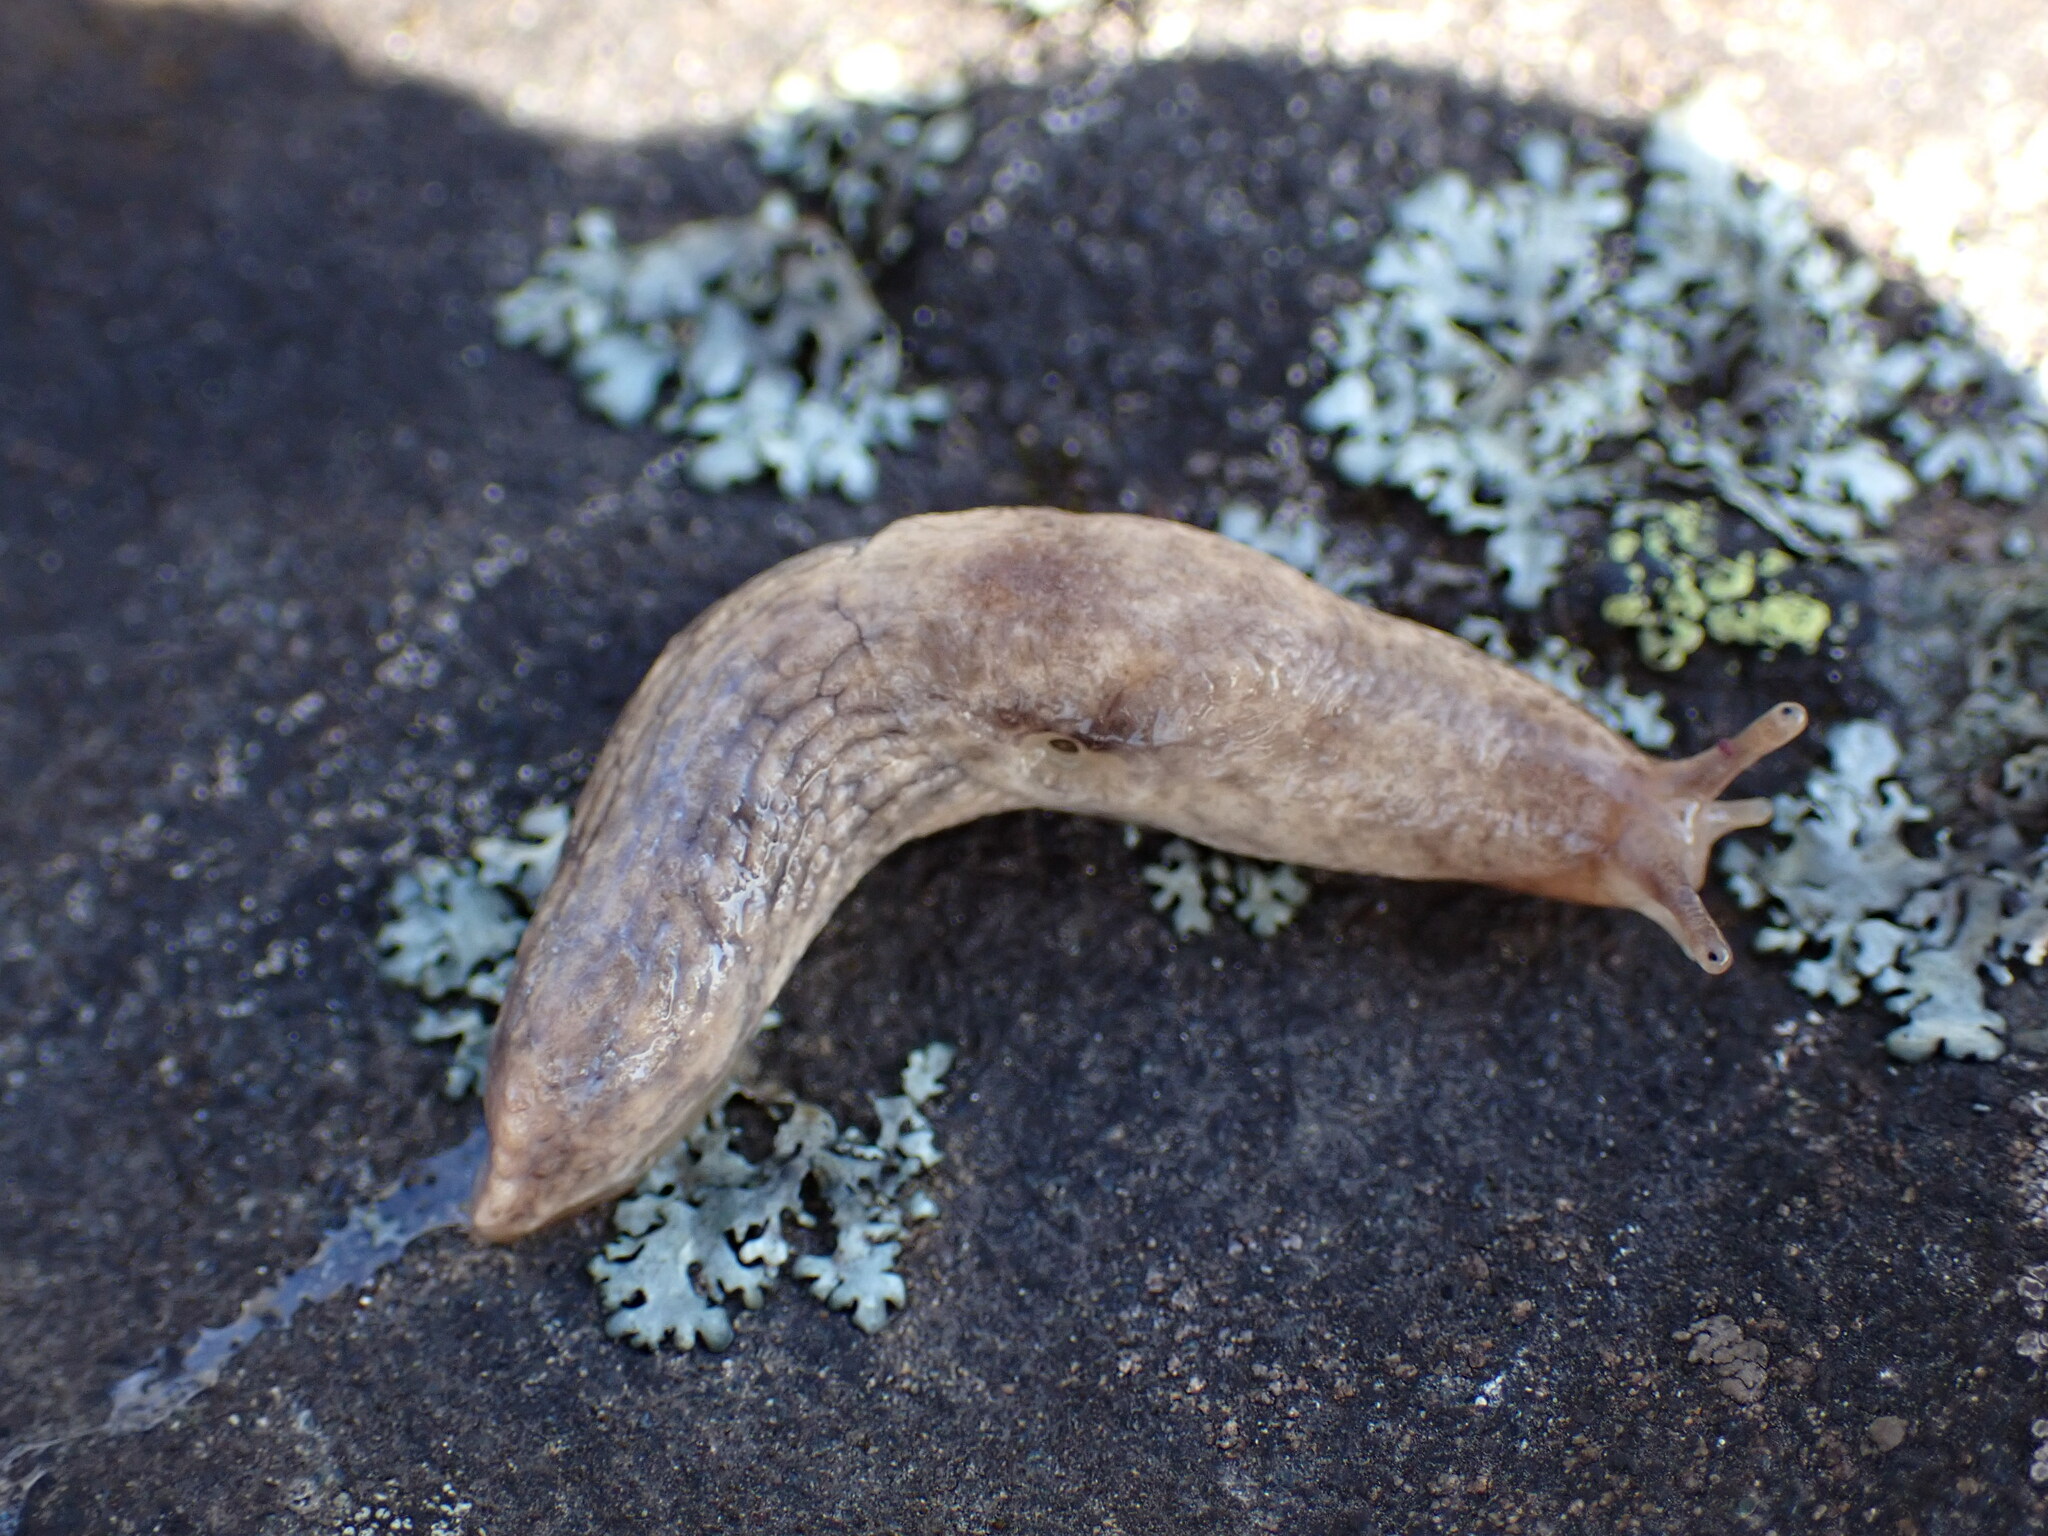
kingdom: Animalia
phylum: Mollusca
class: Gastropoda
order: Stylommatophora
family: Agriolimacidae
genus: Deroceras
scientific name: Deroceras reticulatum
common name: Gray field slug
